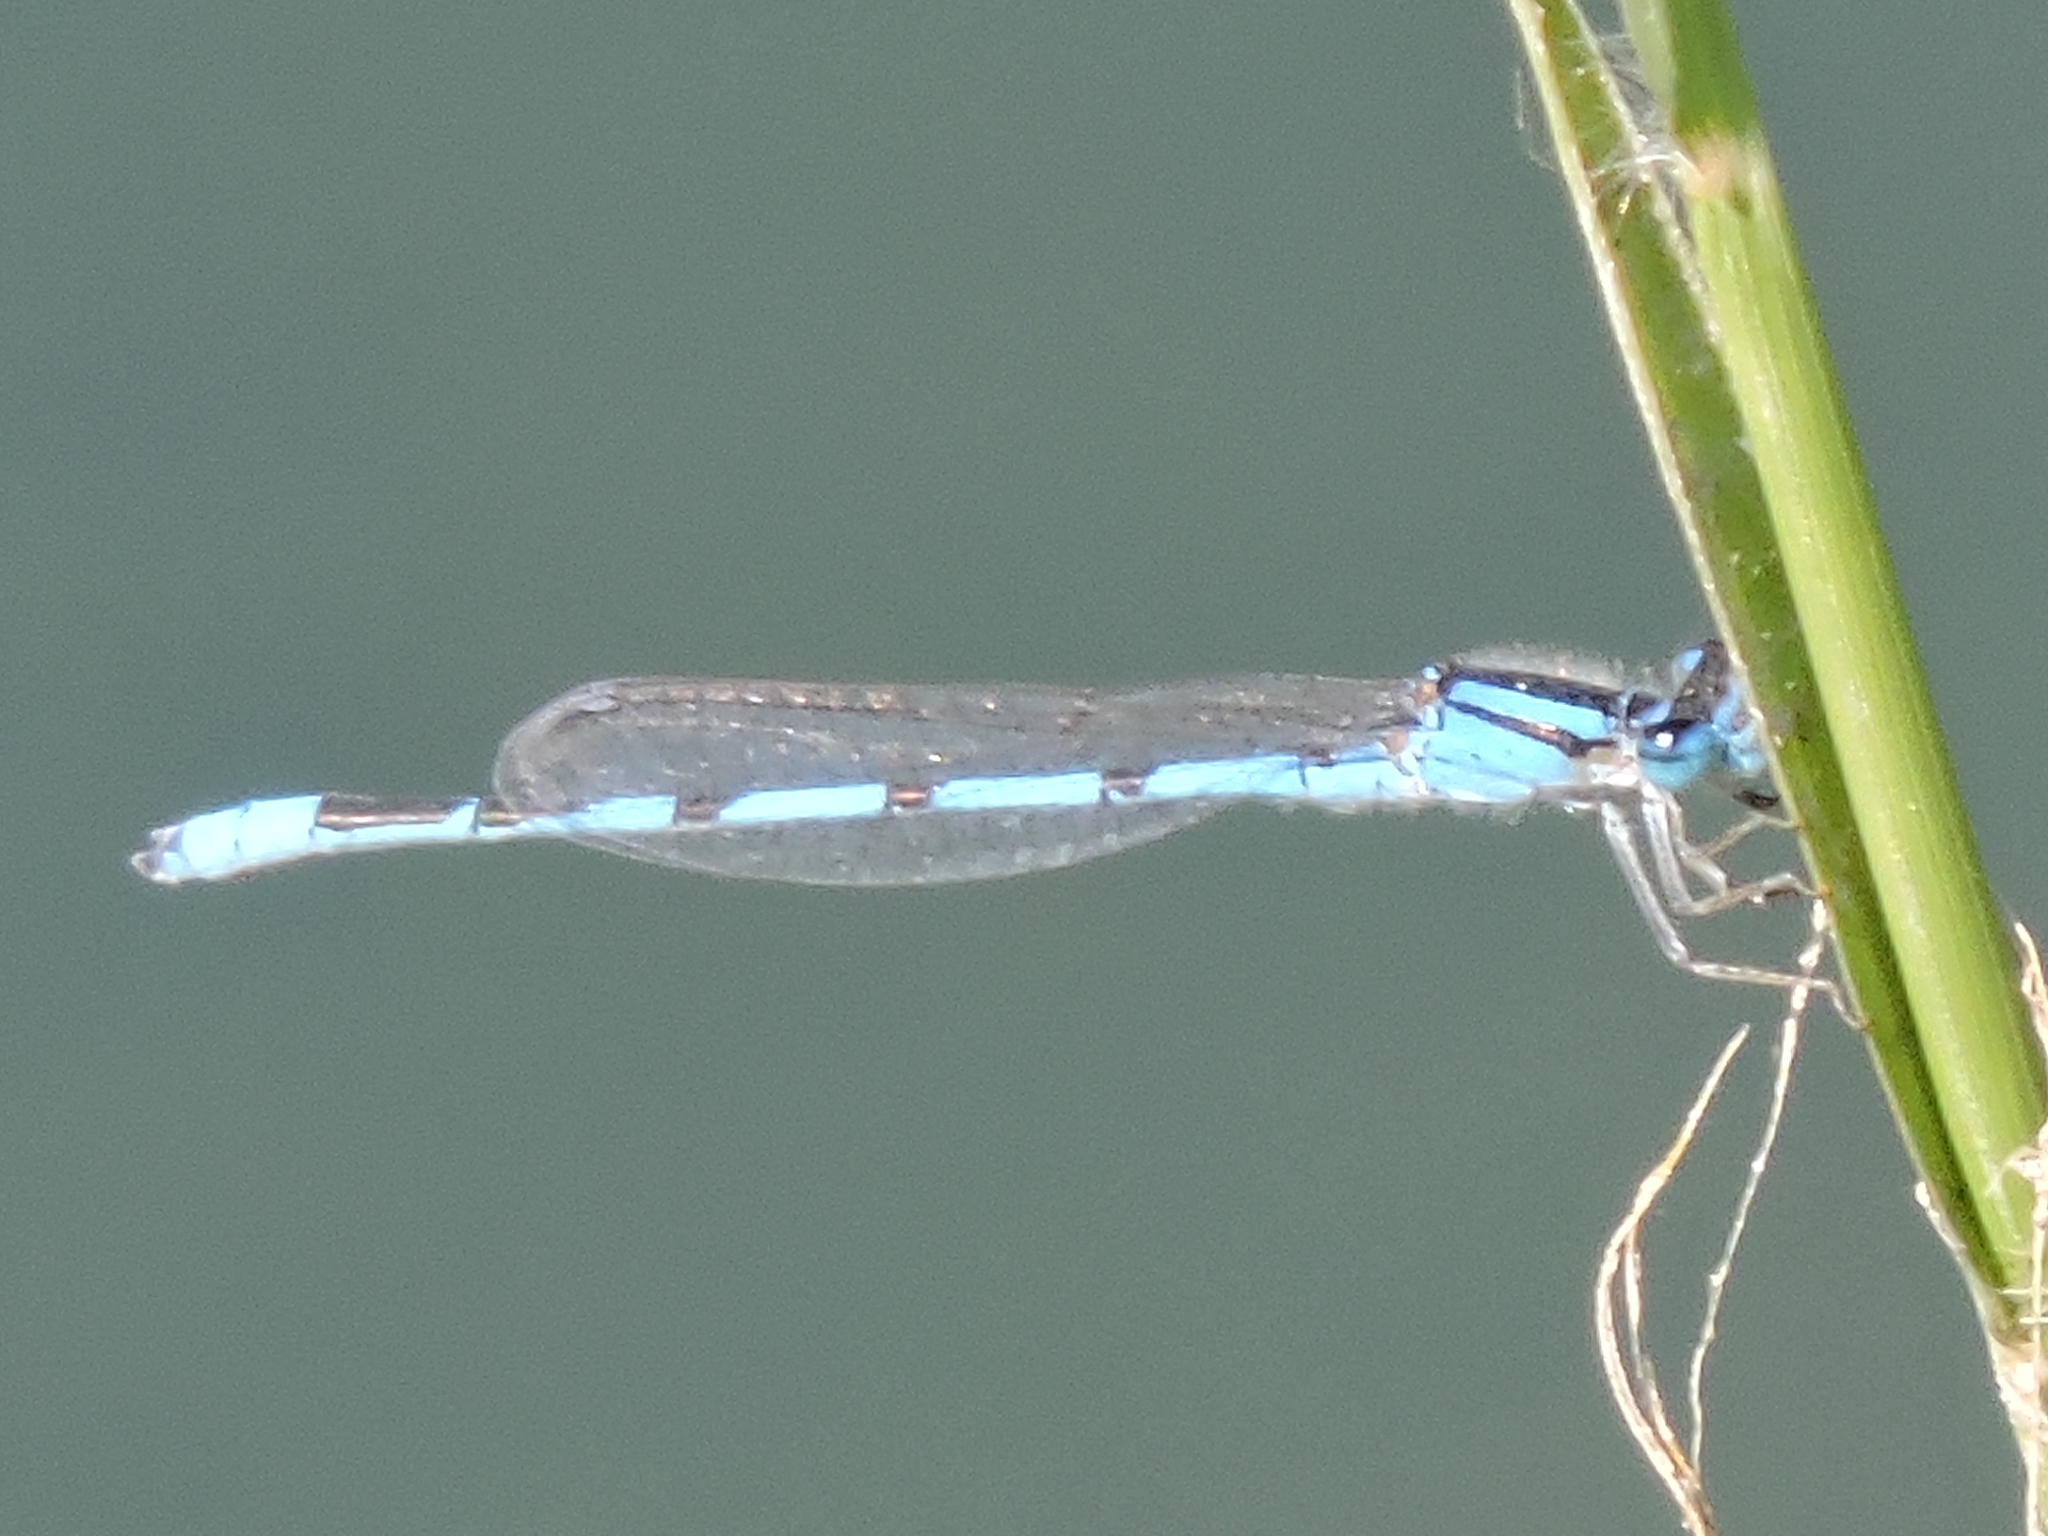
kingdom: Animalia
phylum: Arthropoda
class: Insecta
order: Odonata
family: Coenagrionidae
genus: Enallagma
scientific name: Enallagma civile
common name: Damselfly
